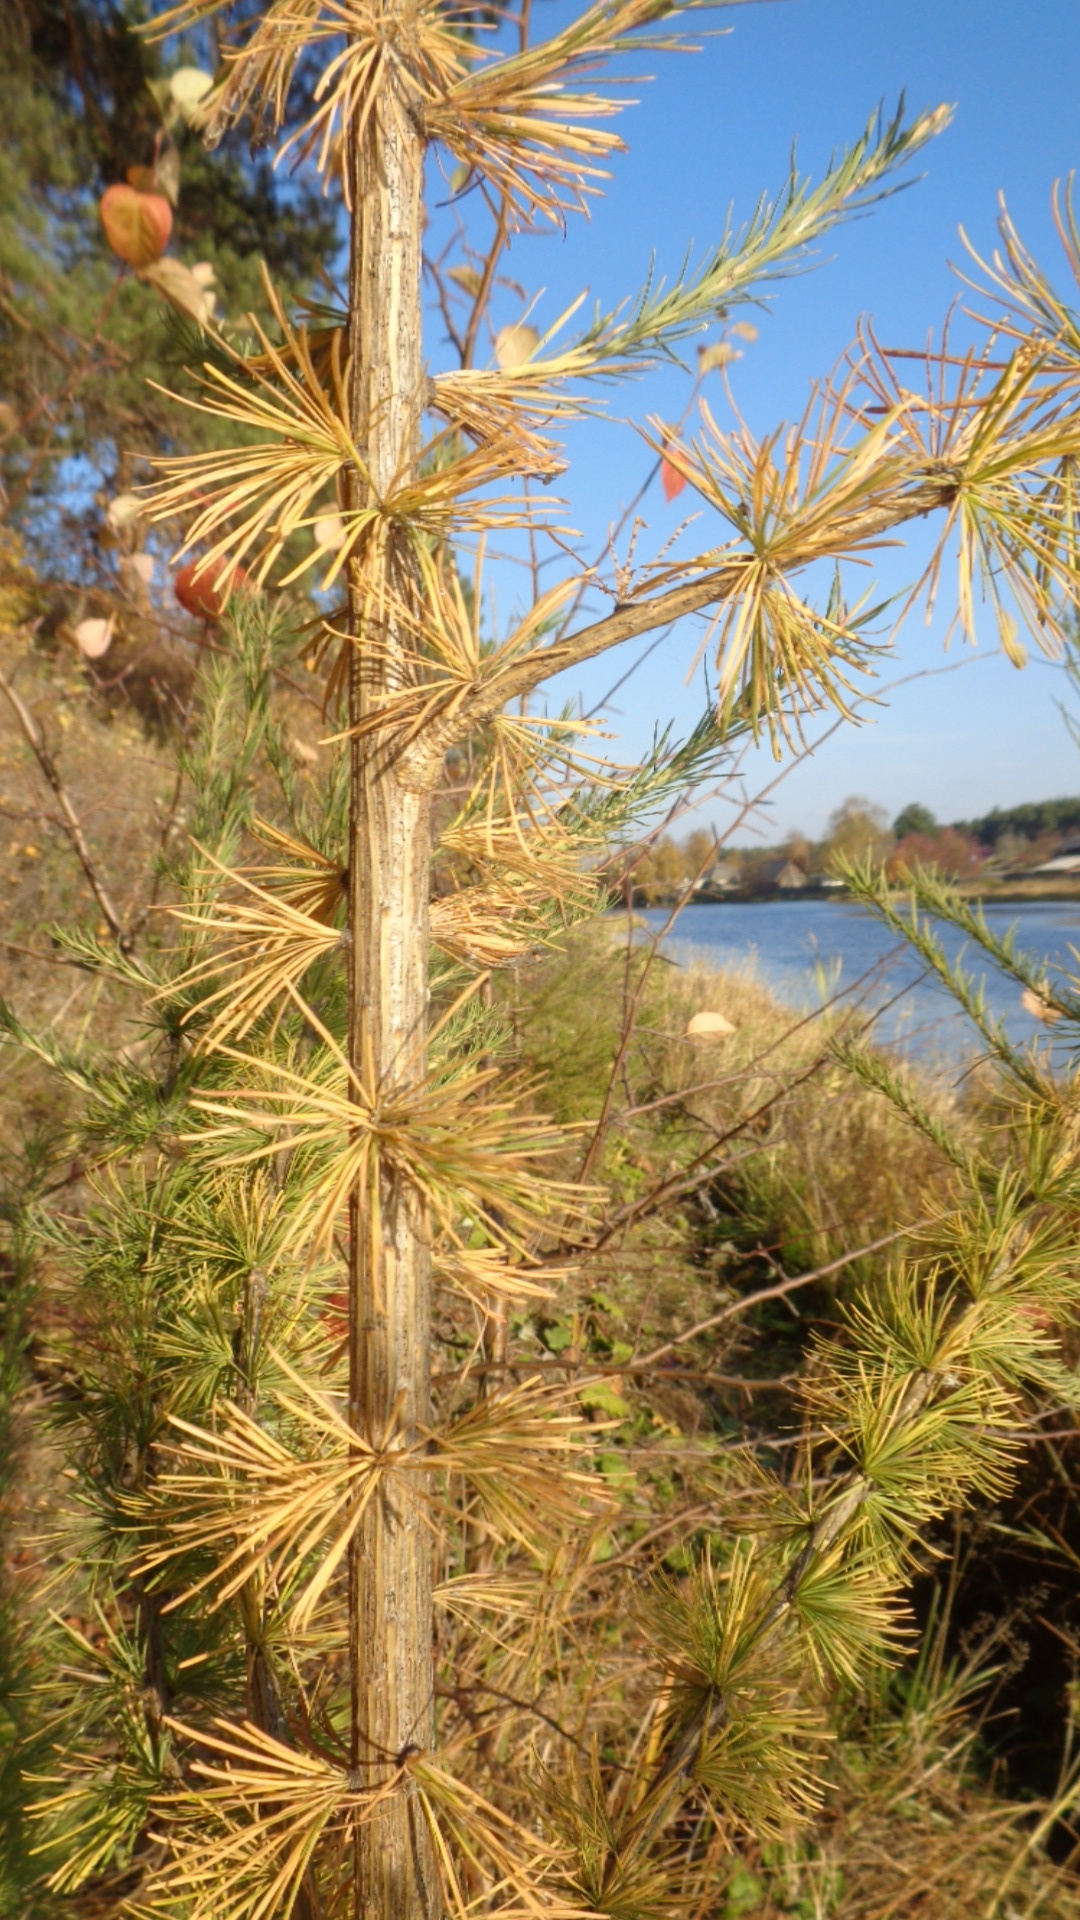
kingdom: Plantae
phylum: Tracheophyta
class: Pinopsida
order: Pinales
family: Pinaceae
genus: Larix
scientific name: Larix sibirica
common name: Siberian larch
